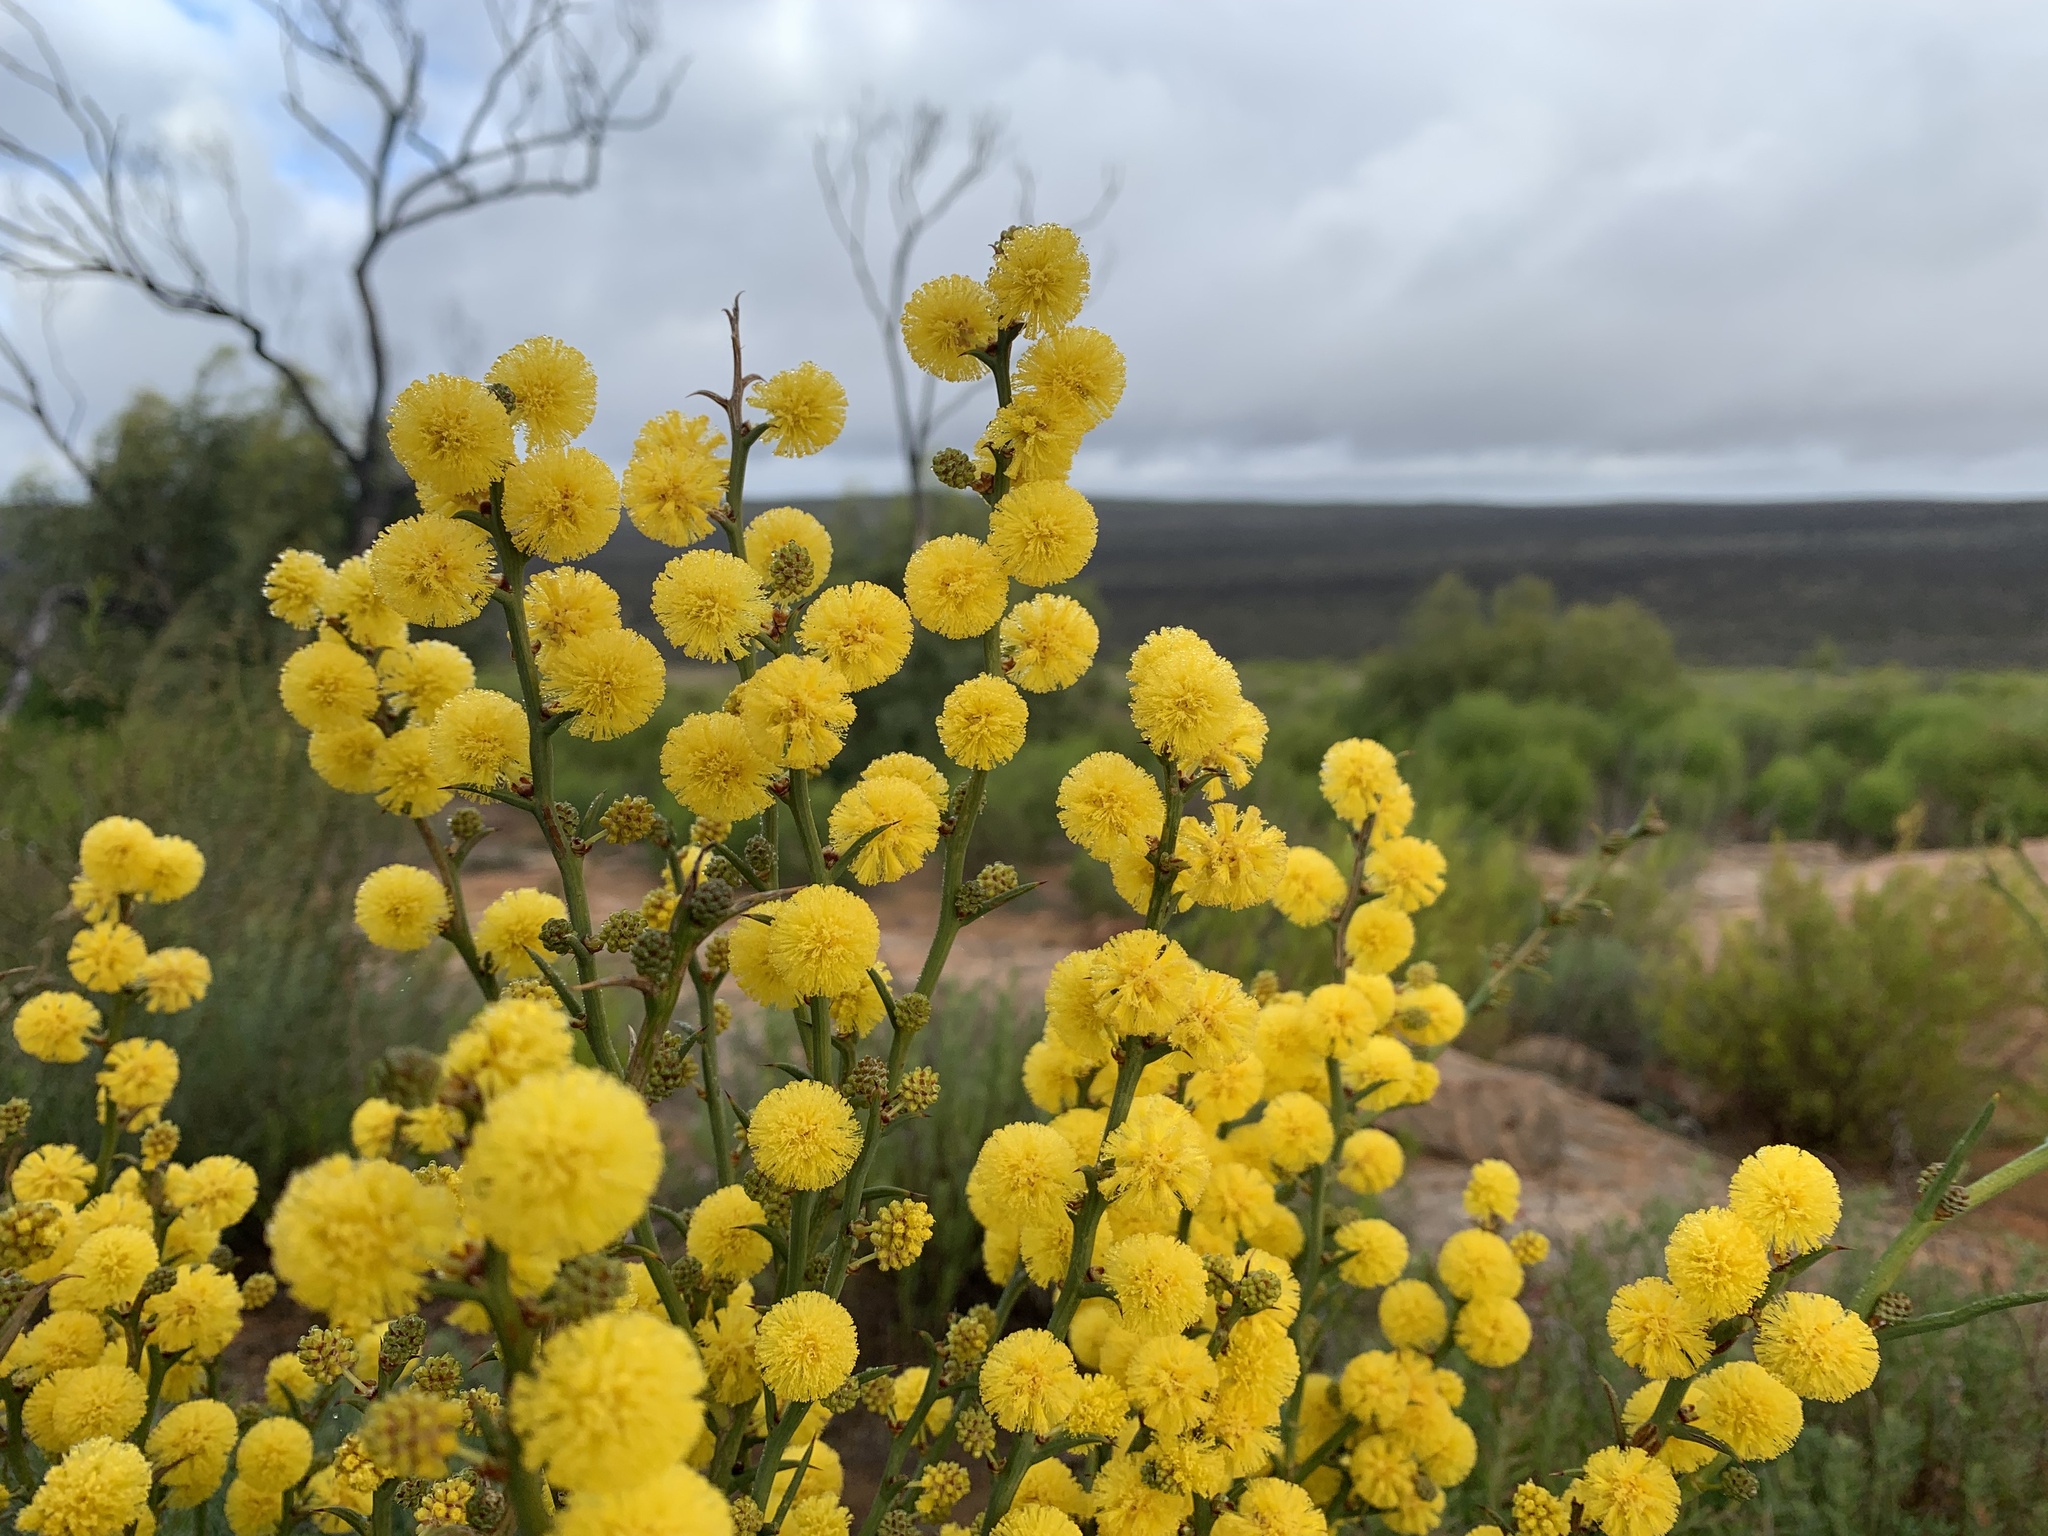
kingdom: Plantae
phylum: Tracheophyta
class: Magnoliopsida
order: Fabales
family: Fabaceae
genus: Acacia
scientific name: Acacia continua
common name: Thorn wattle
